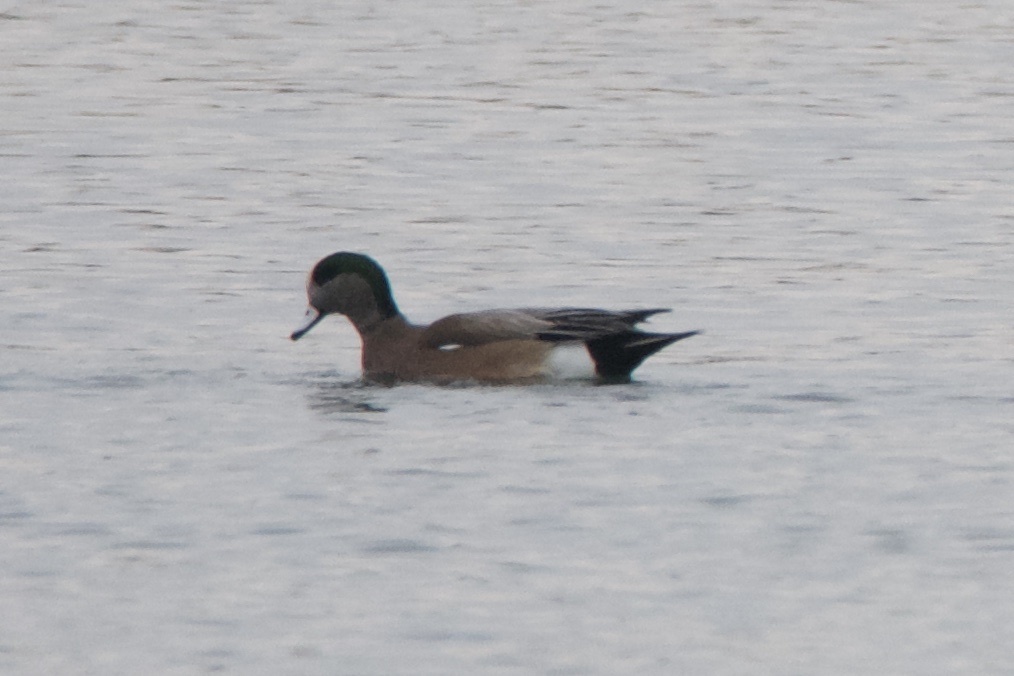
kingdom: Animalia
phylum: Chordata
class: Aves
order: Anseriformes
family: Anatidae
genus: Mareca
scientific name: Mareca americana
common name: American wigeon
